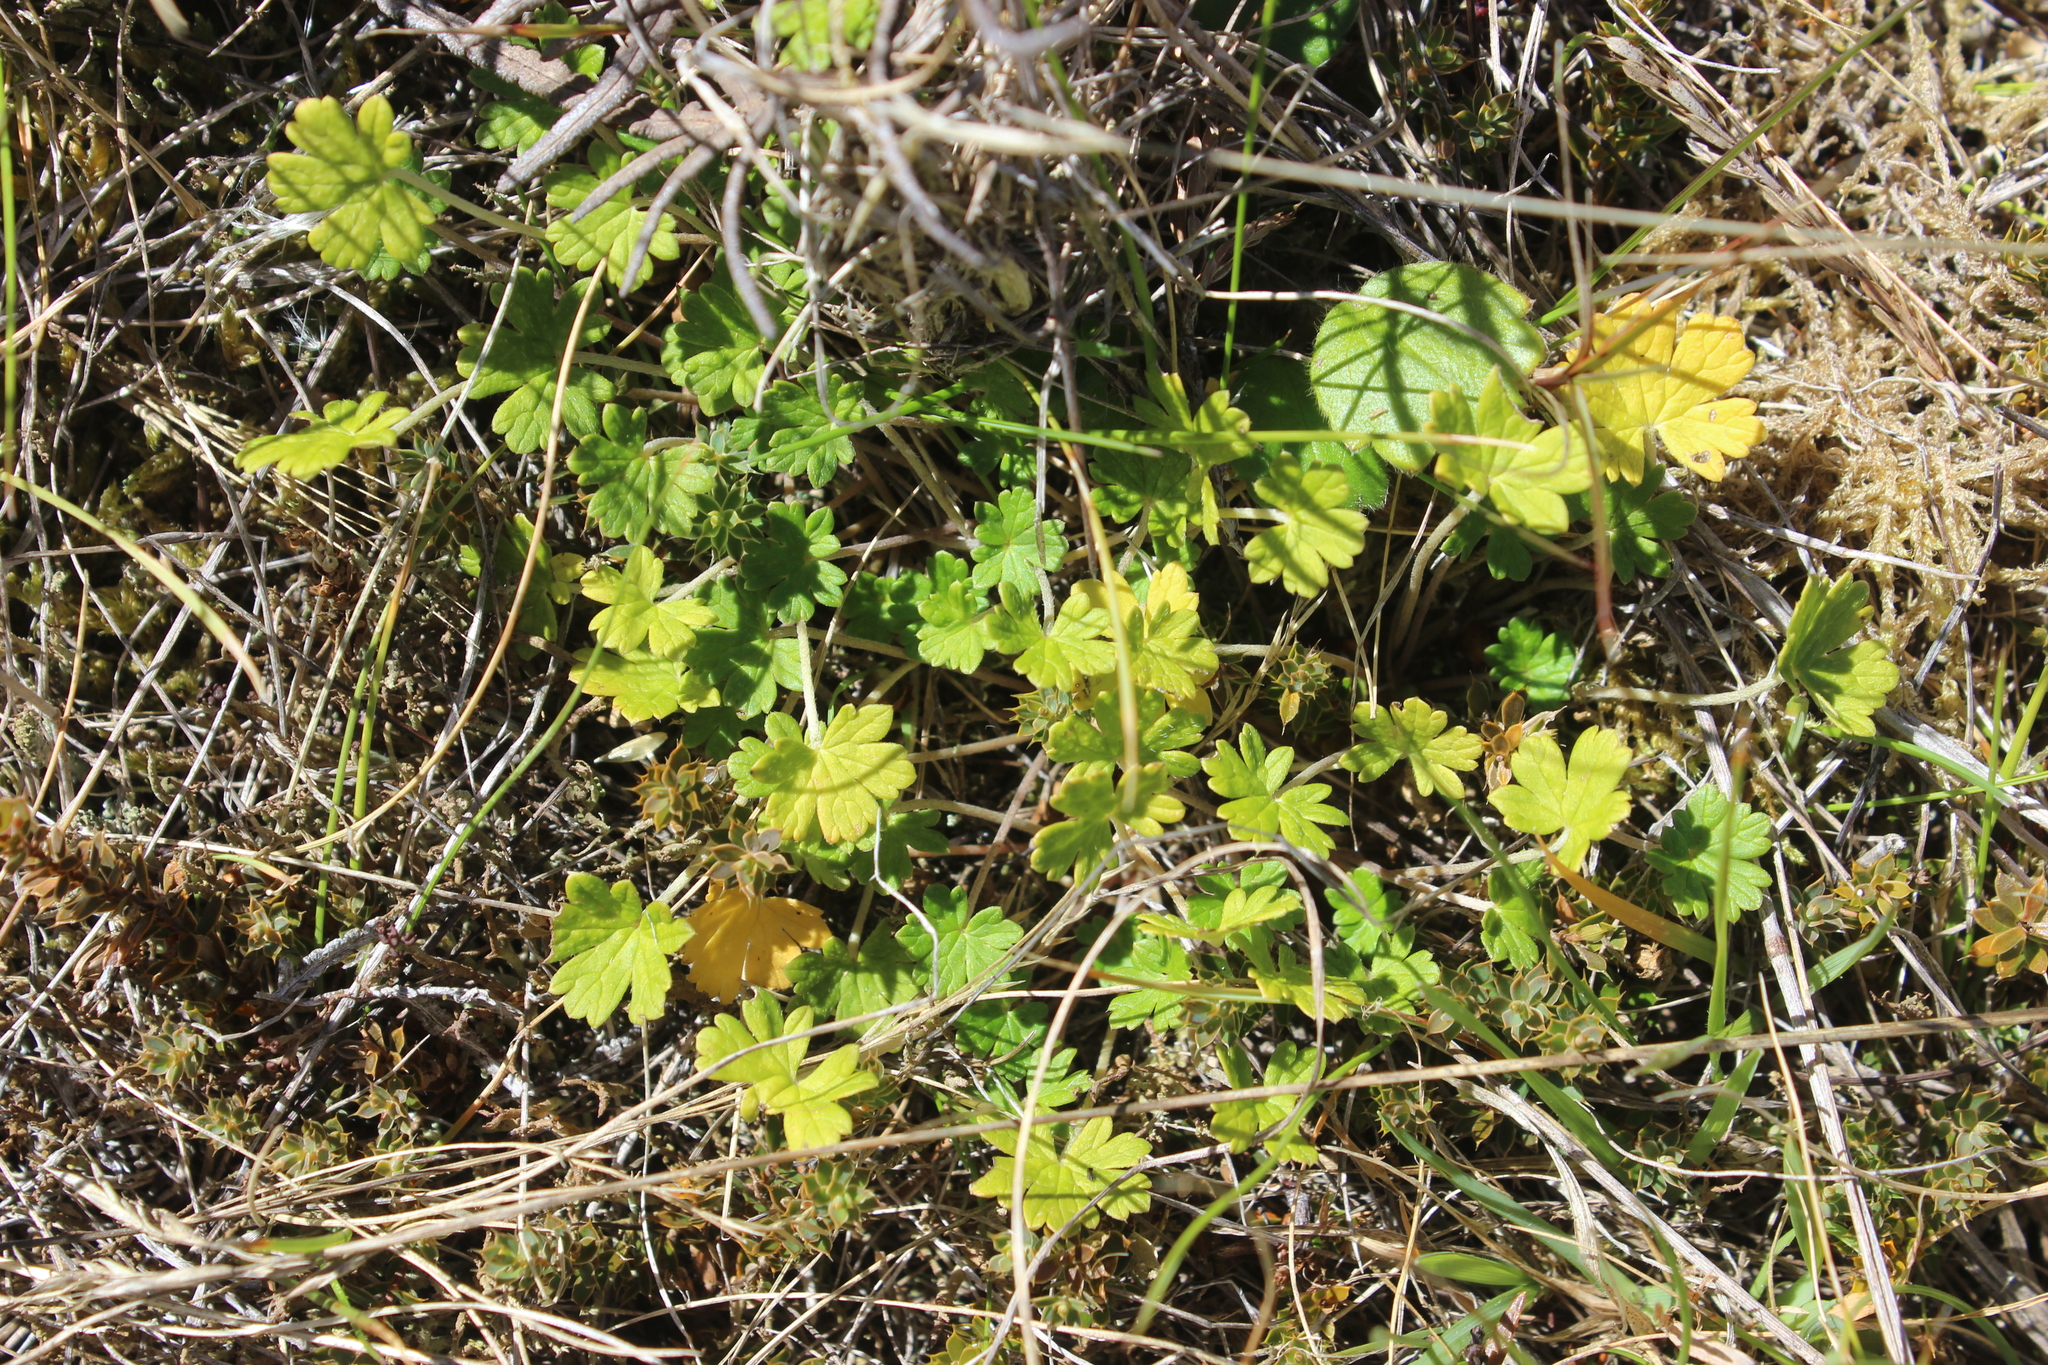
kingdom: Plantae
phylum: Tracheophyta
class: Magnoliopsida
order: Geraniales
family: Geraniaceae
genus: Geranium
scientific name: Geranium brevicaule
